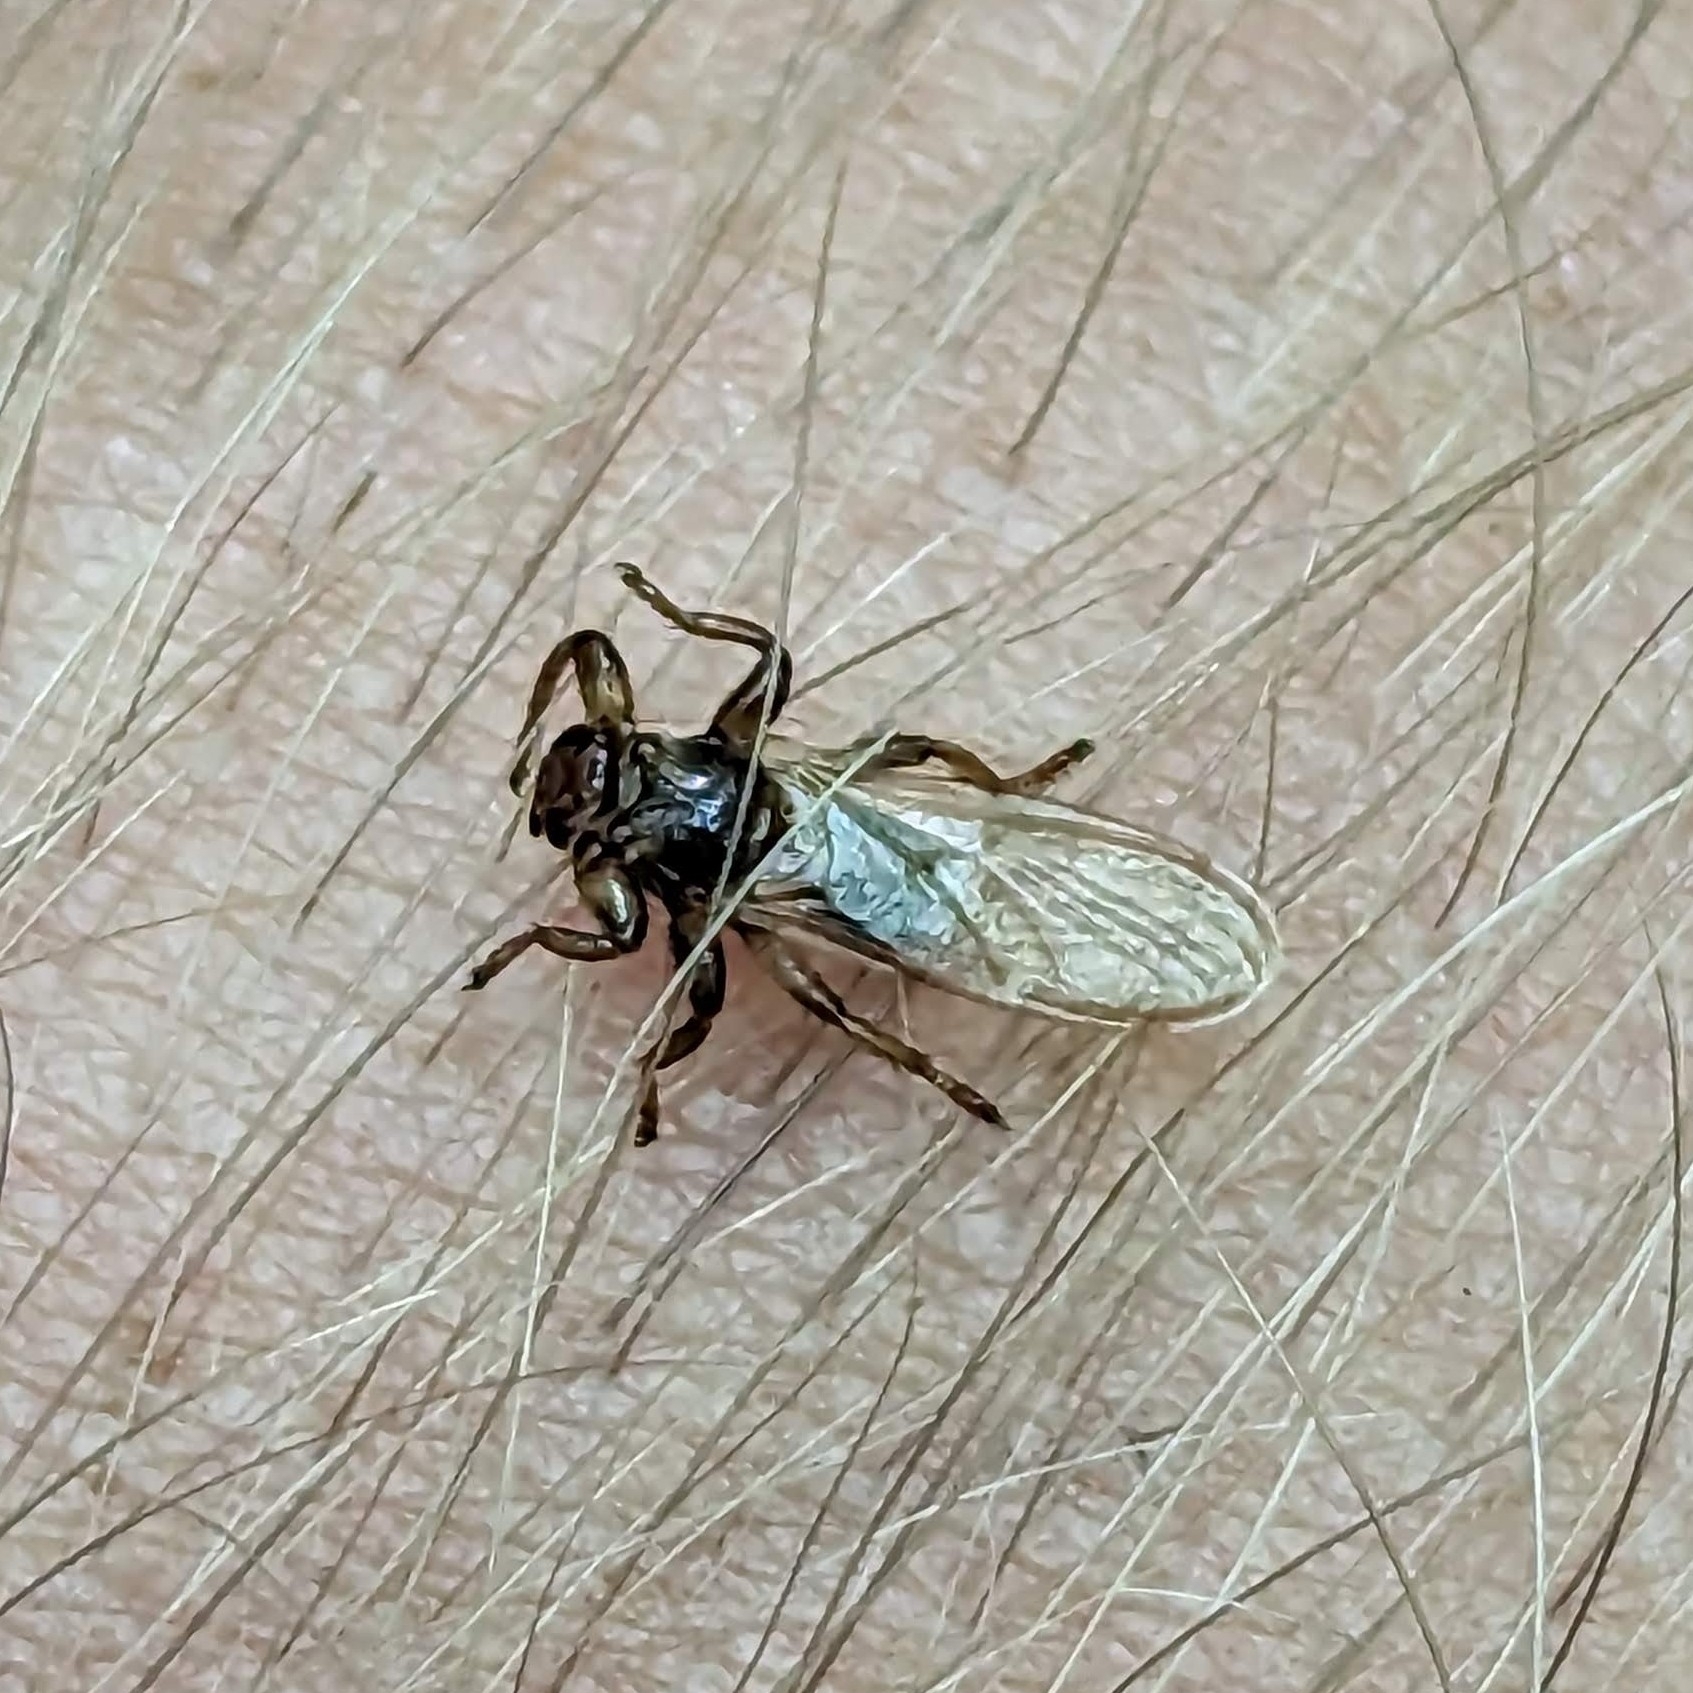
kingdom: Animalia
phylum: Arthropoda
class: Insecta
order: Diptera
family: Hippoboscidae
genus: Lipoptena
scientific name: Lipoptena cervi
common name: Deer ked
